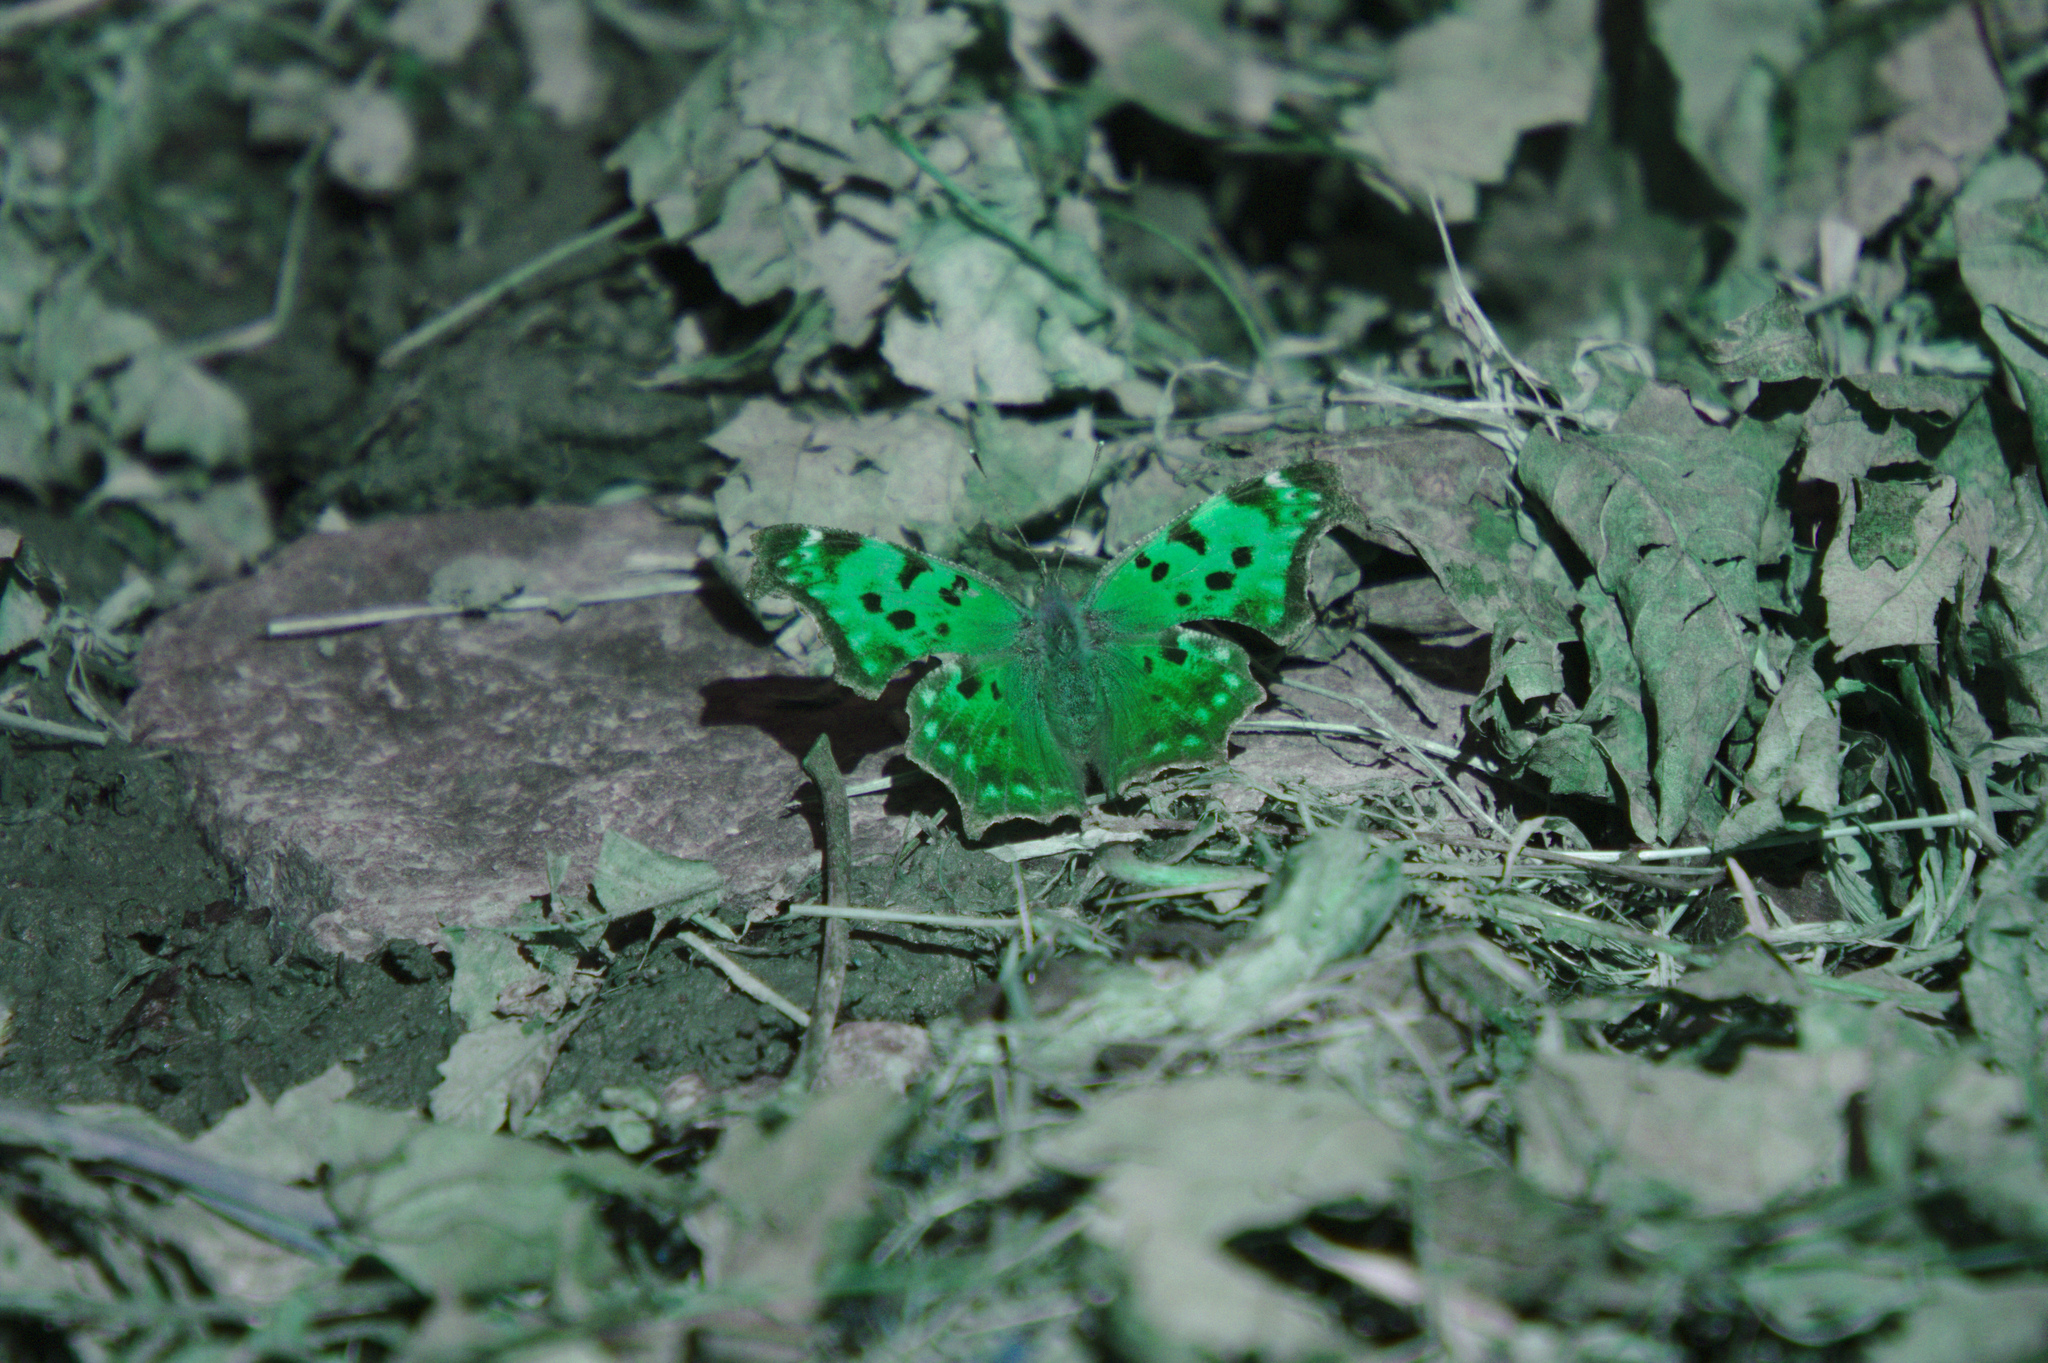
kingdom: Animalia
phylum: Arthropoda
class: Insecta
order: Lepidoptera
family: Nymphalidae
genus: Polygonia
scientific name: Polygonia comma
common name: Eastern comma
